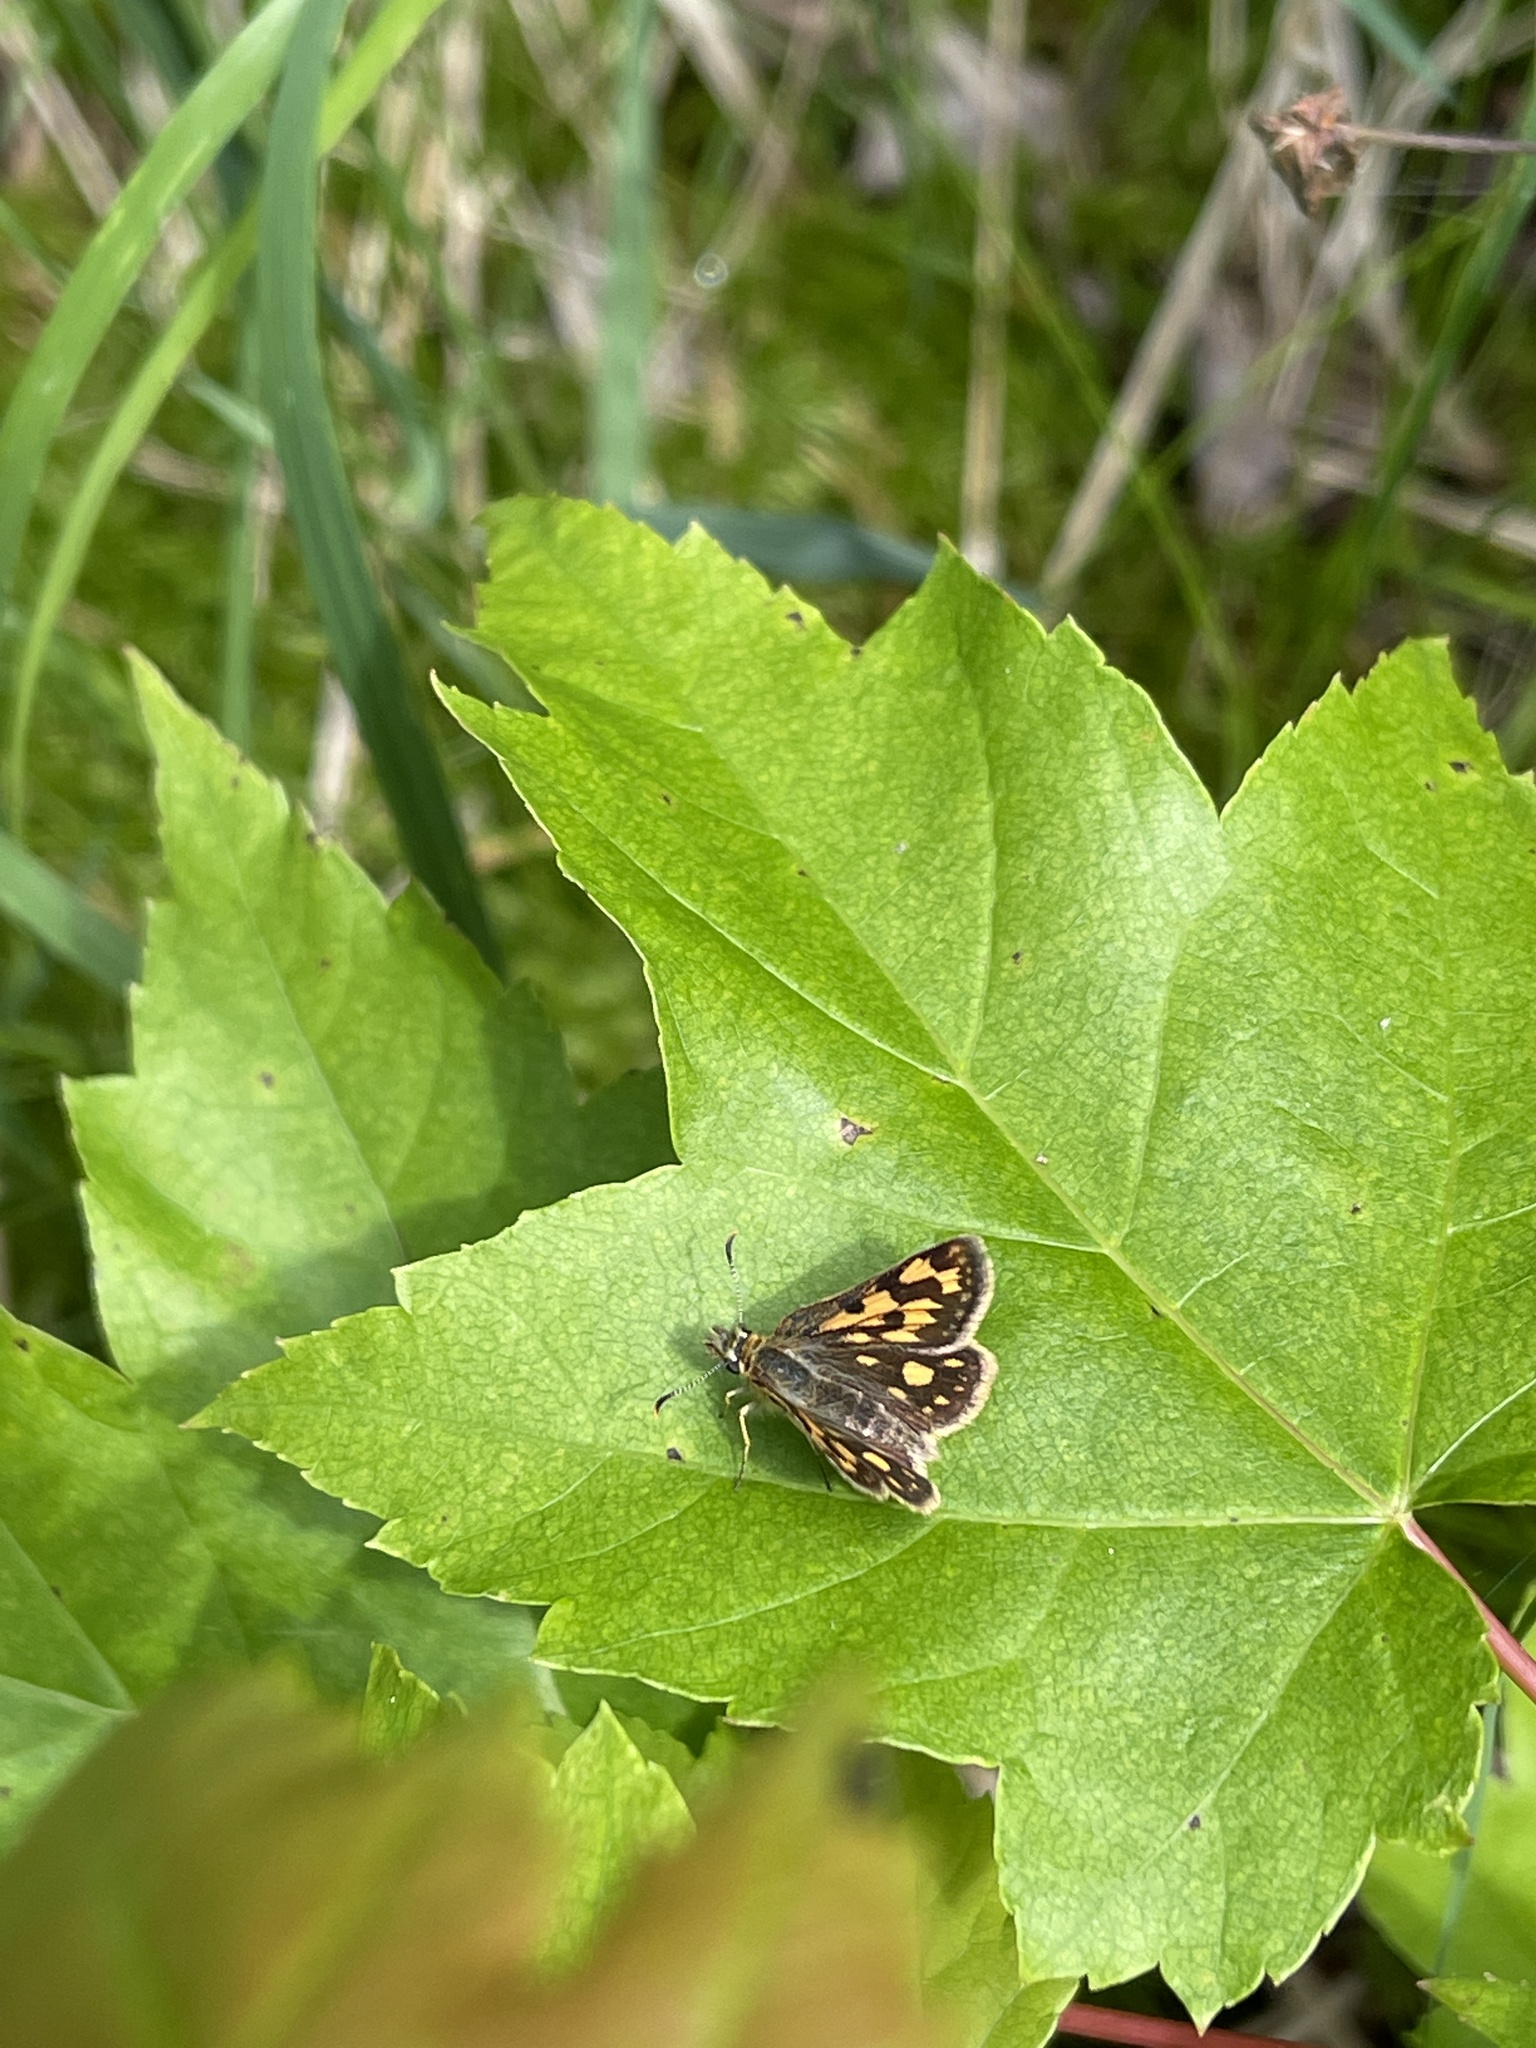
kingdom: Animalia
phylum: Arthropoda
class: Insecta
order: Lepidoptera
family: Hesperiidae
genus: Carterocephalus
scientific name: Carterocephalus mandan
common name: Arctic skipperling
